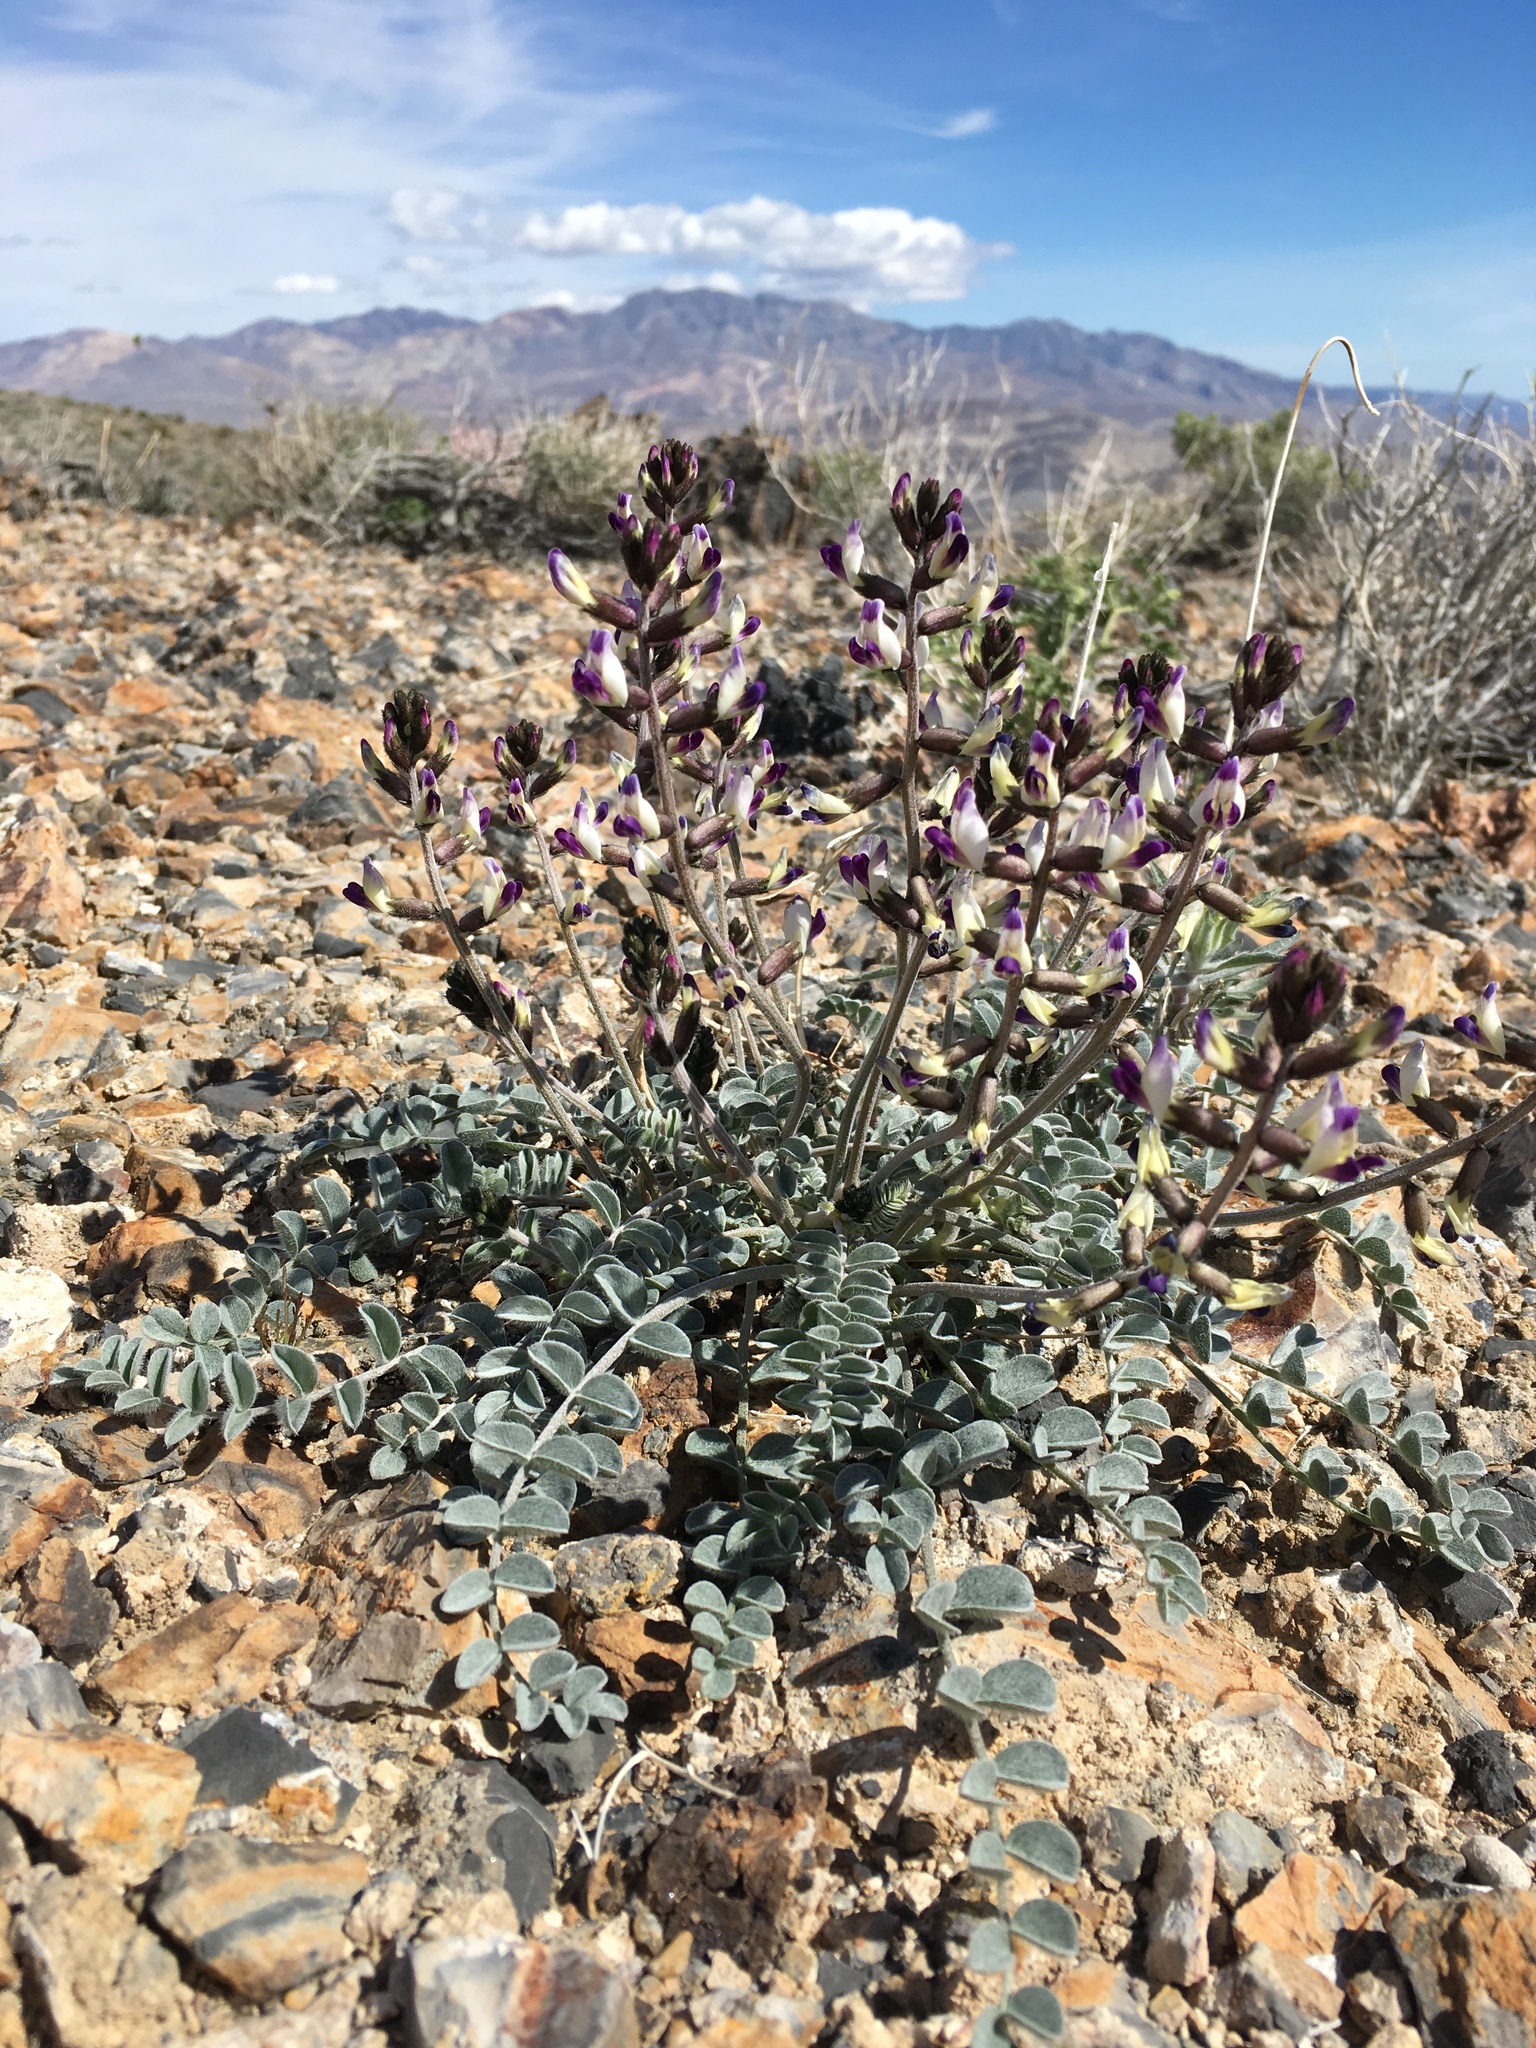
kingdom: Plantae
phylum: Tracheophyta
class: Magnoliopsida
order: Fabales
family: Fabaceae
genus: Astragalus
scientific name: Astragalus layneae
